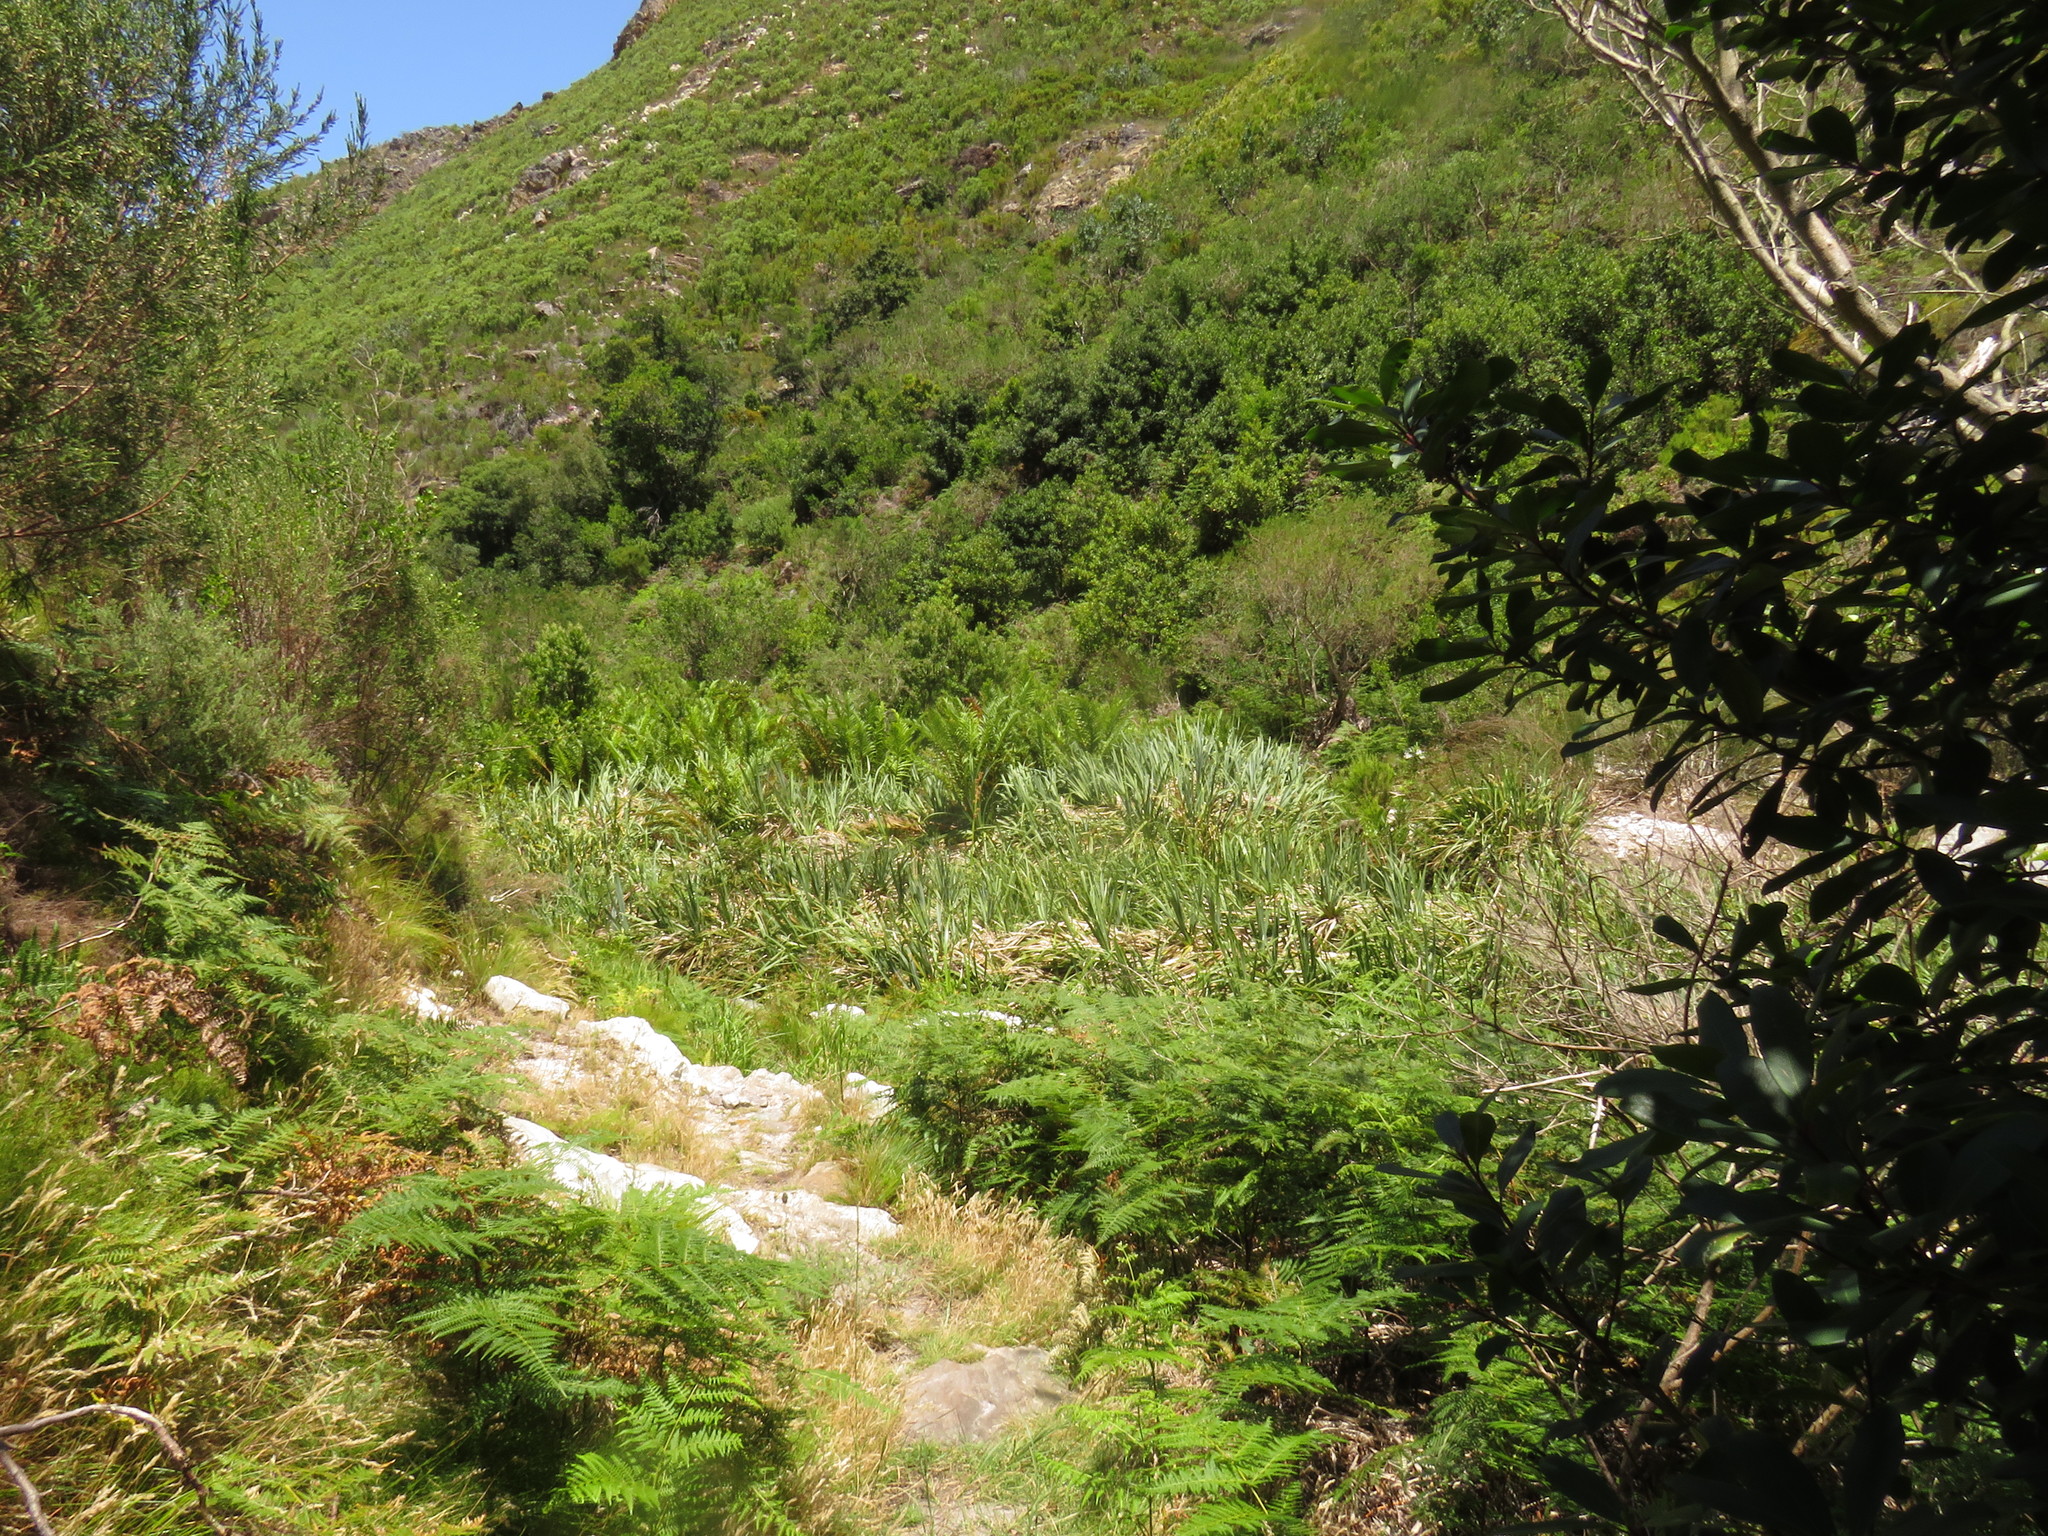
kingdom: Plantae
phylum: Tracheophyta
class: Polypodiopsida
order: Polypodiales
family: Dennstaedtiaceae
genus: Pteridium
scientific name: Pteridium aquilinum
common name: Bracken
